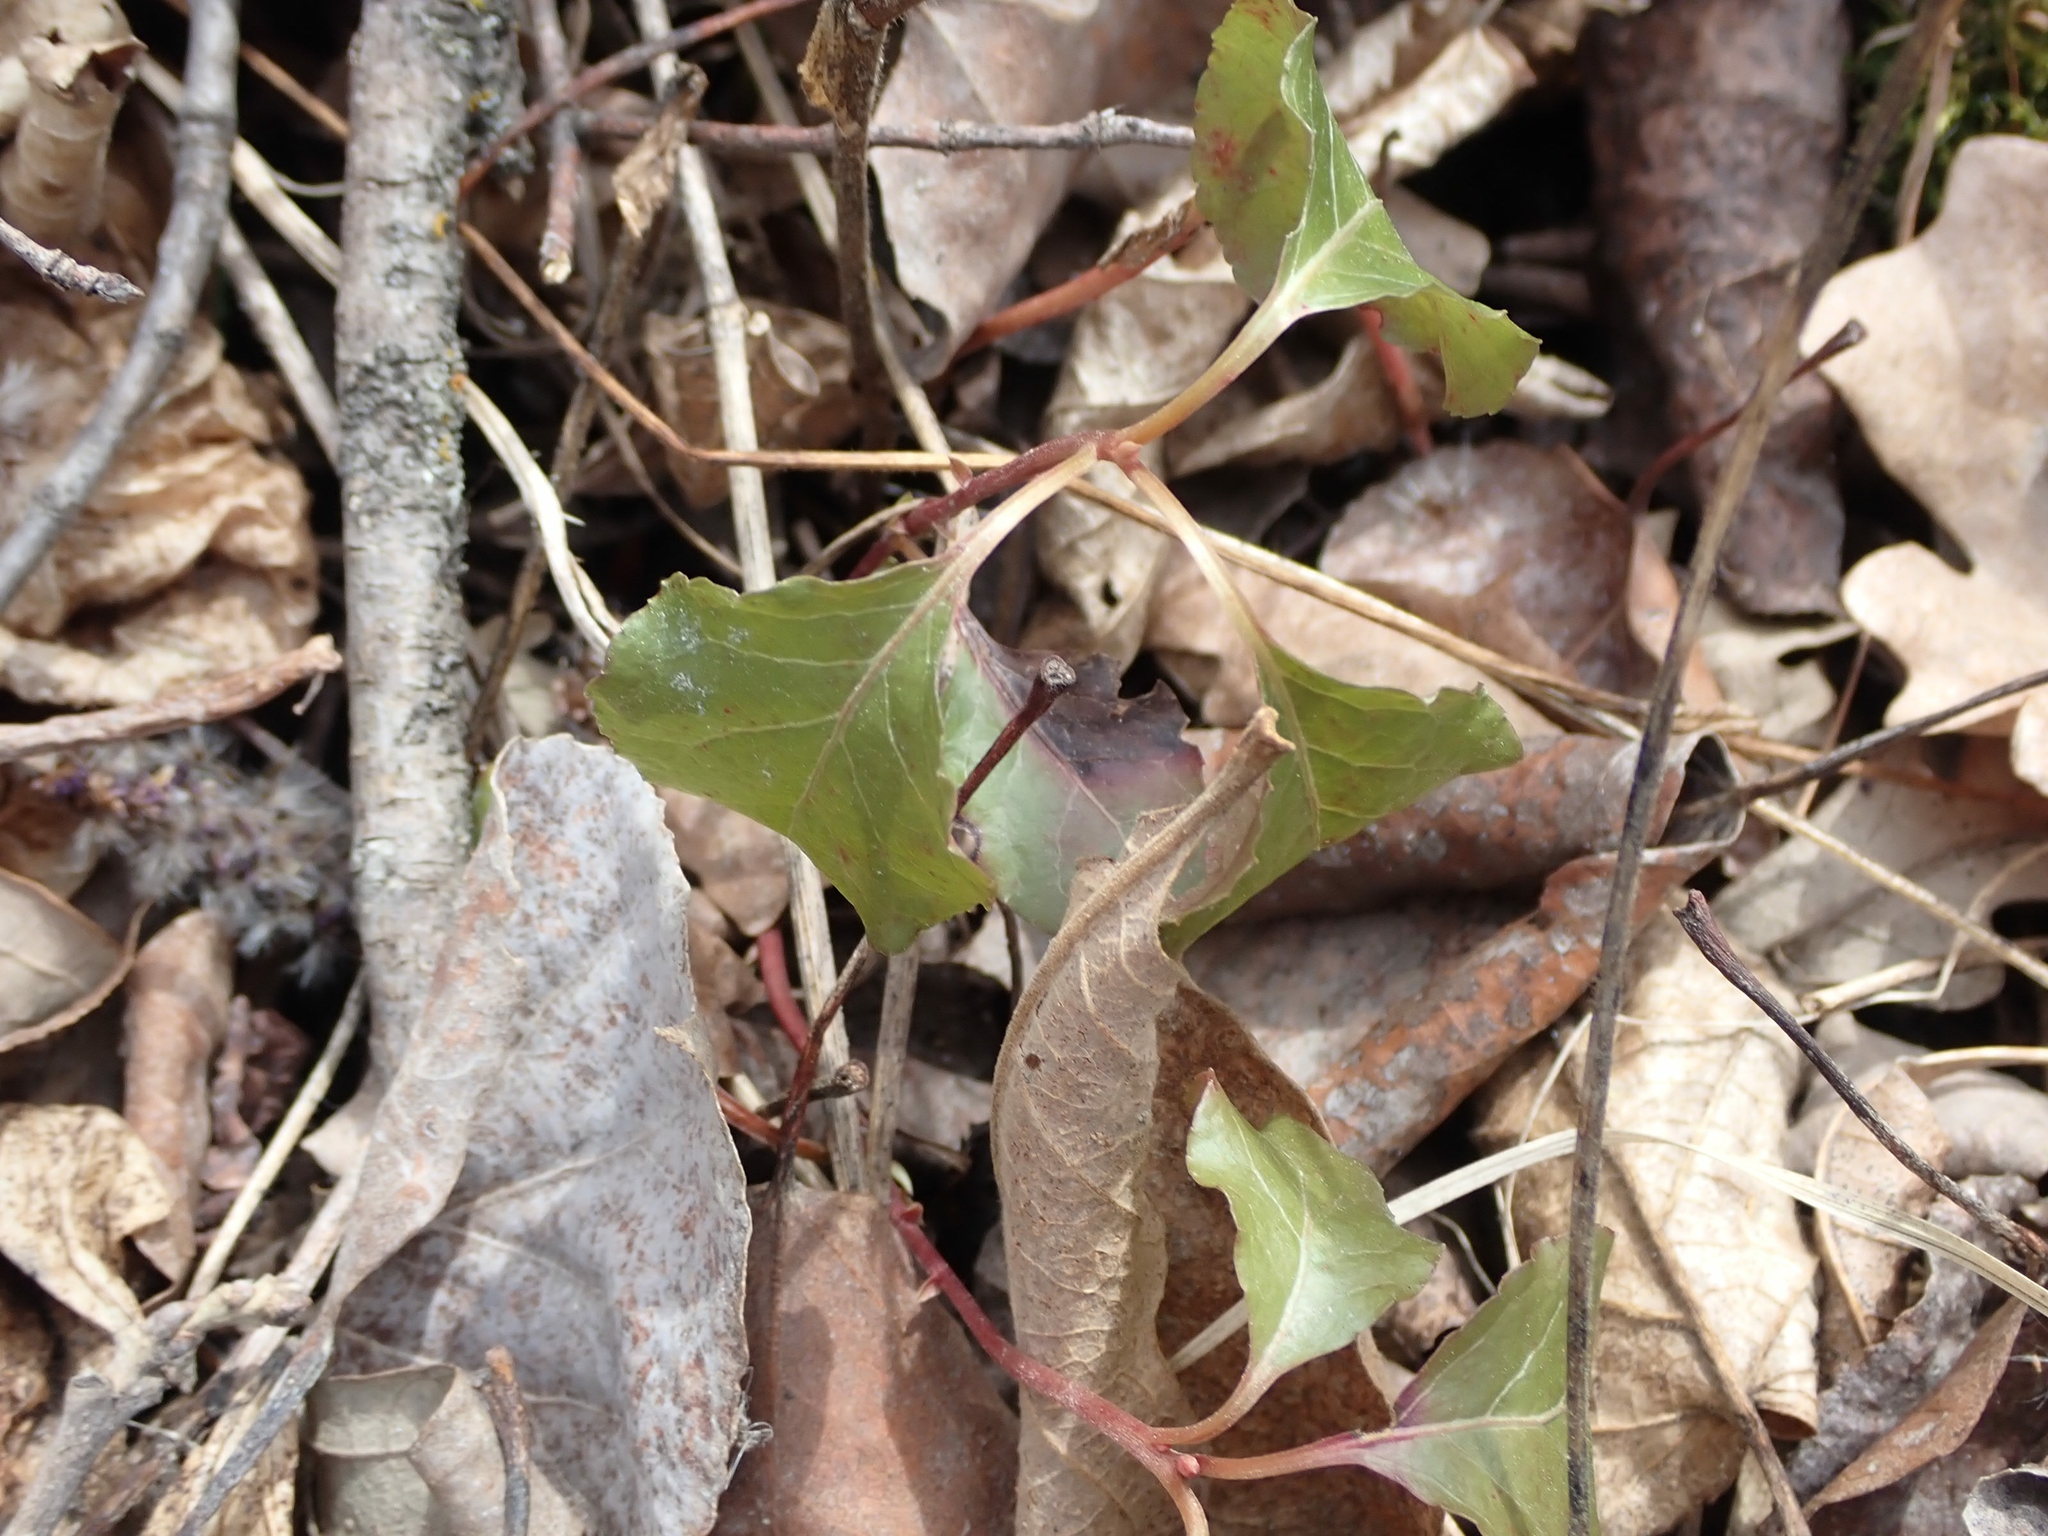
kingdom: Plantae
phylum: Tracheophyta
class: Magnoliopsida
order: Ericales
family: Ericaceae
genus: Orthilia
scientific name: Orthilia secunda
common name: One-sided orthilia
